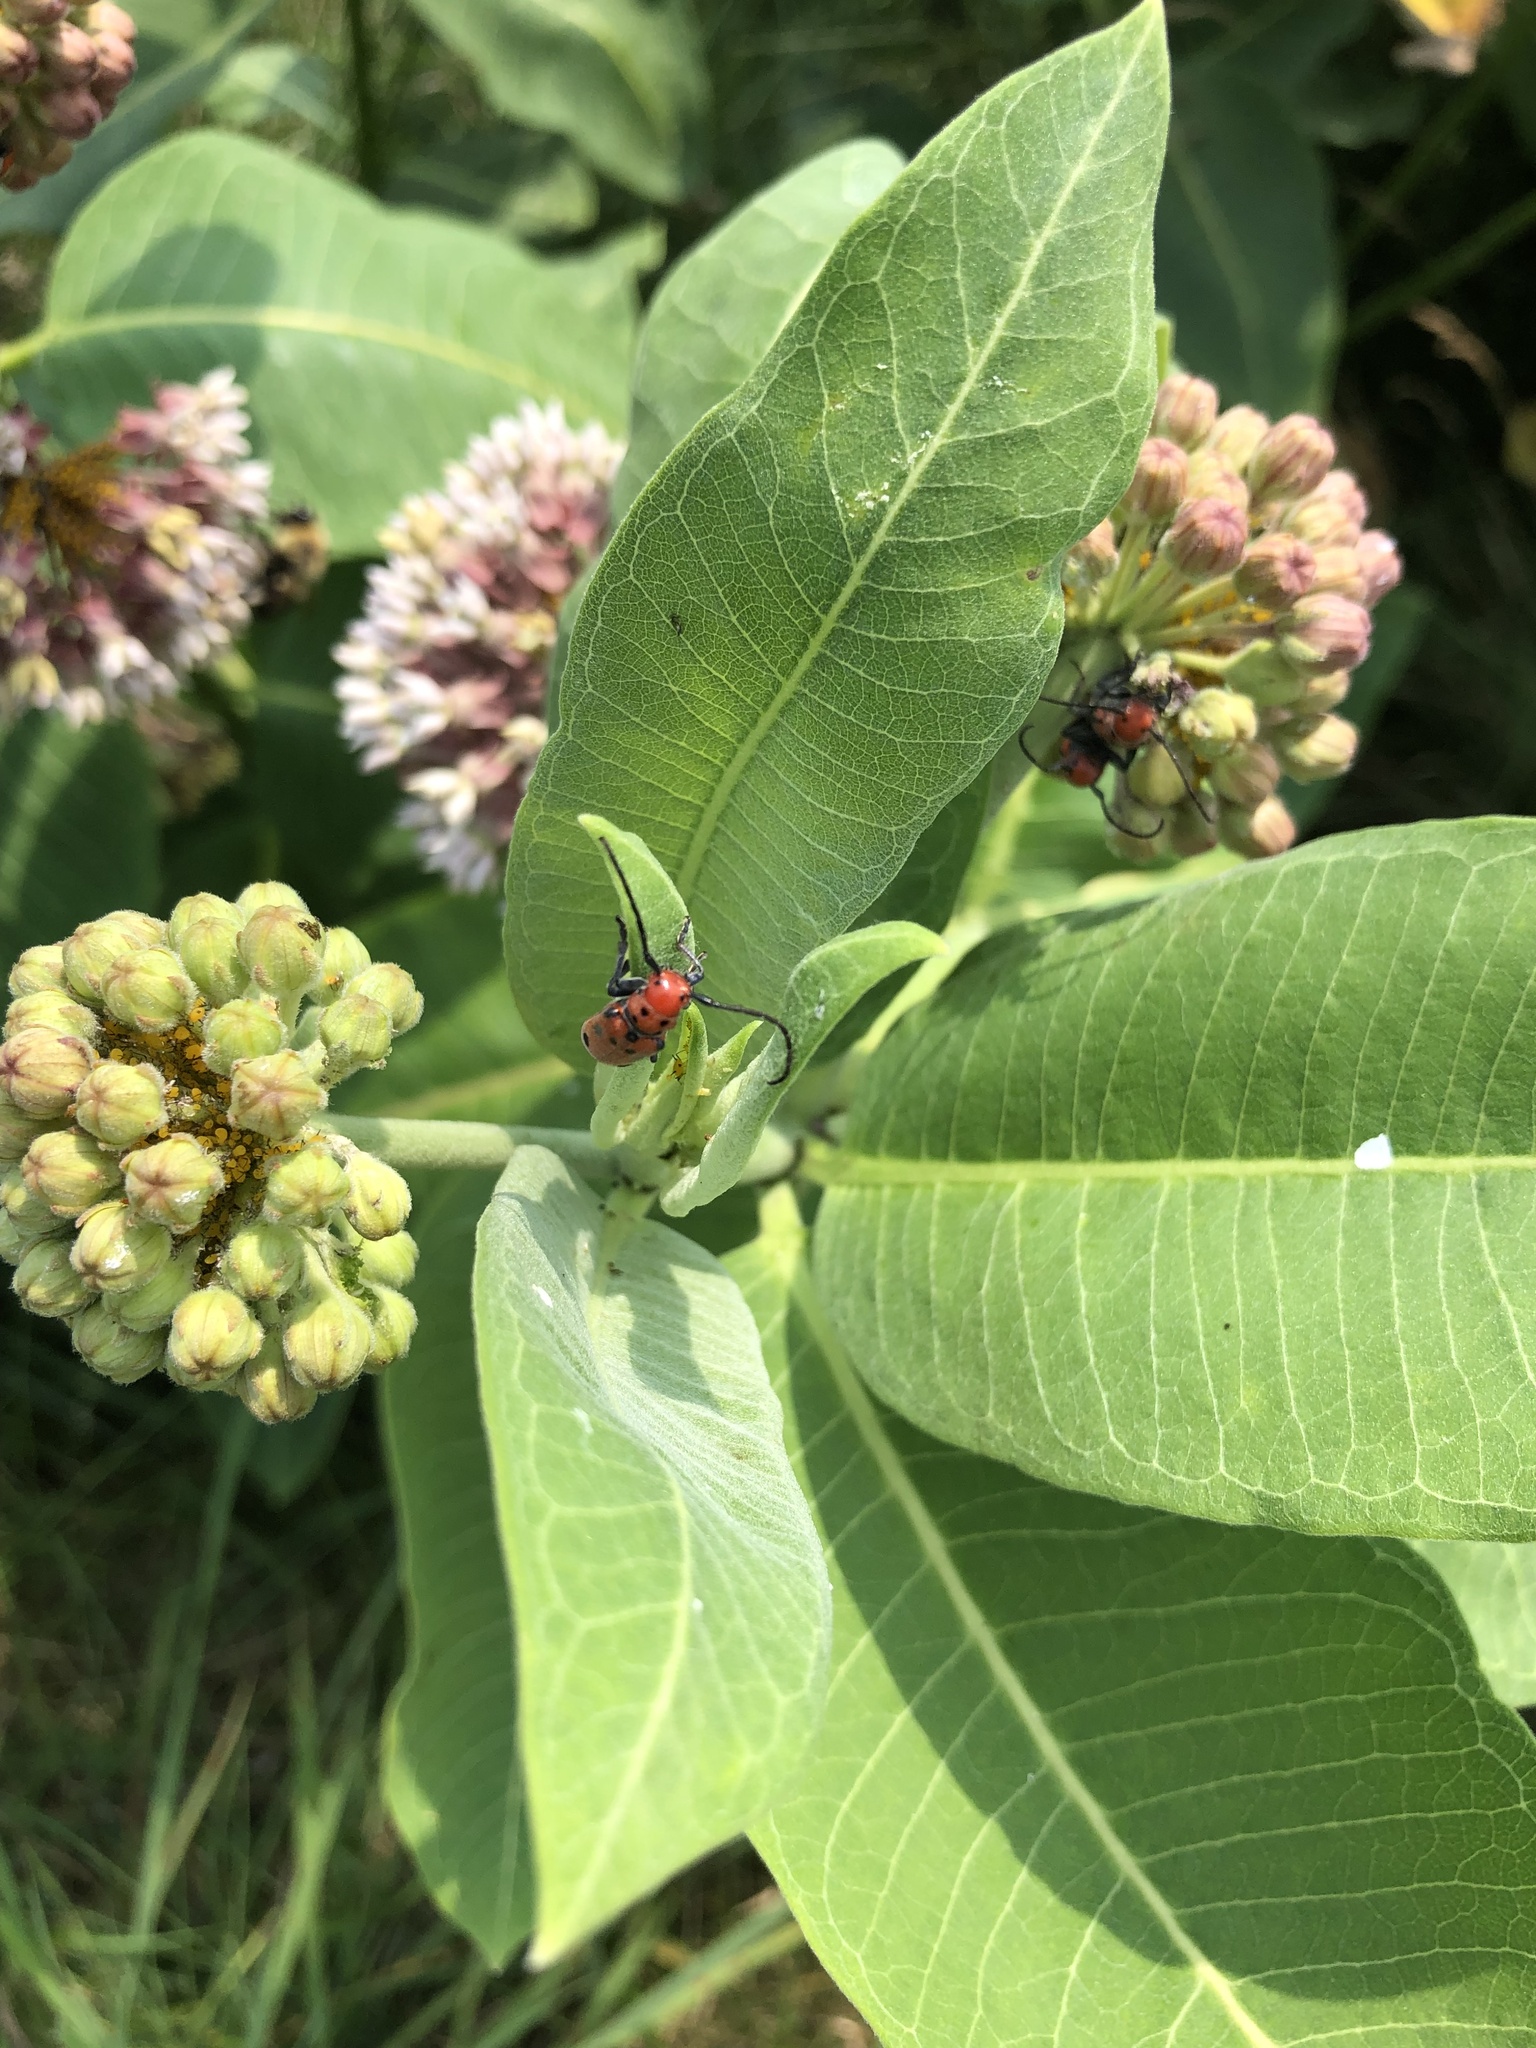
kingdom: Animalia
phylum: Arthropoda
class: Insecta
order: Coleoptera
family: Cerambycidae
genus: Tetraopes
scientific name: Tetraopes tetrophthalmus
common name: Red milkweed beetle
